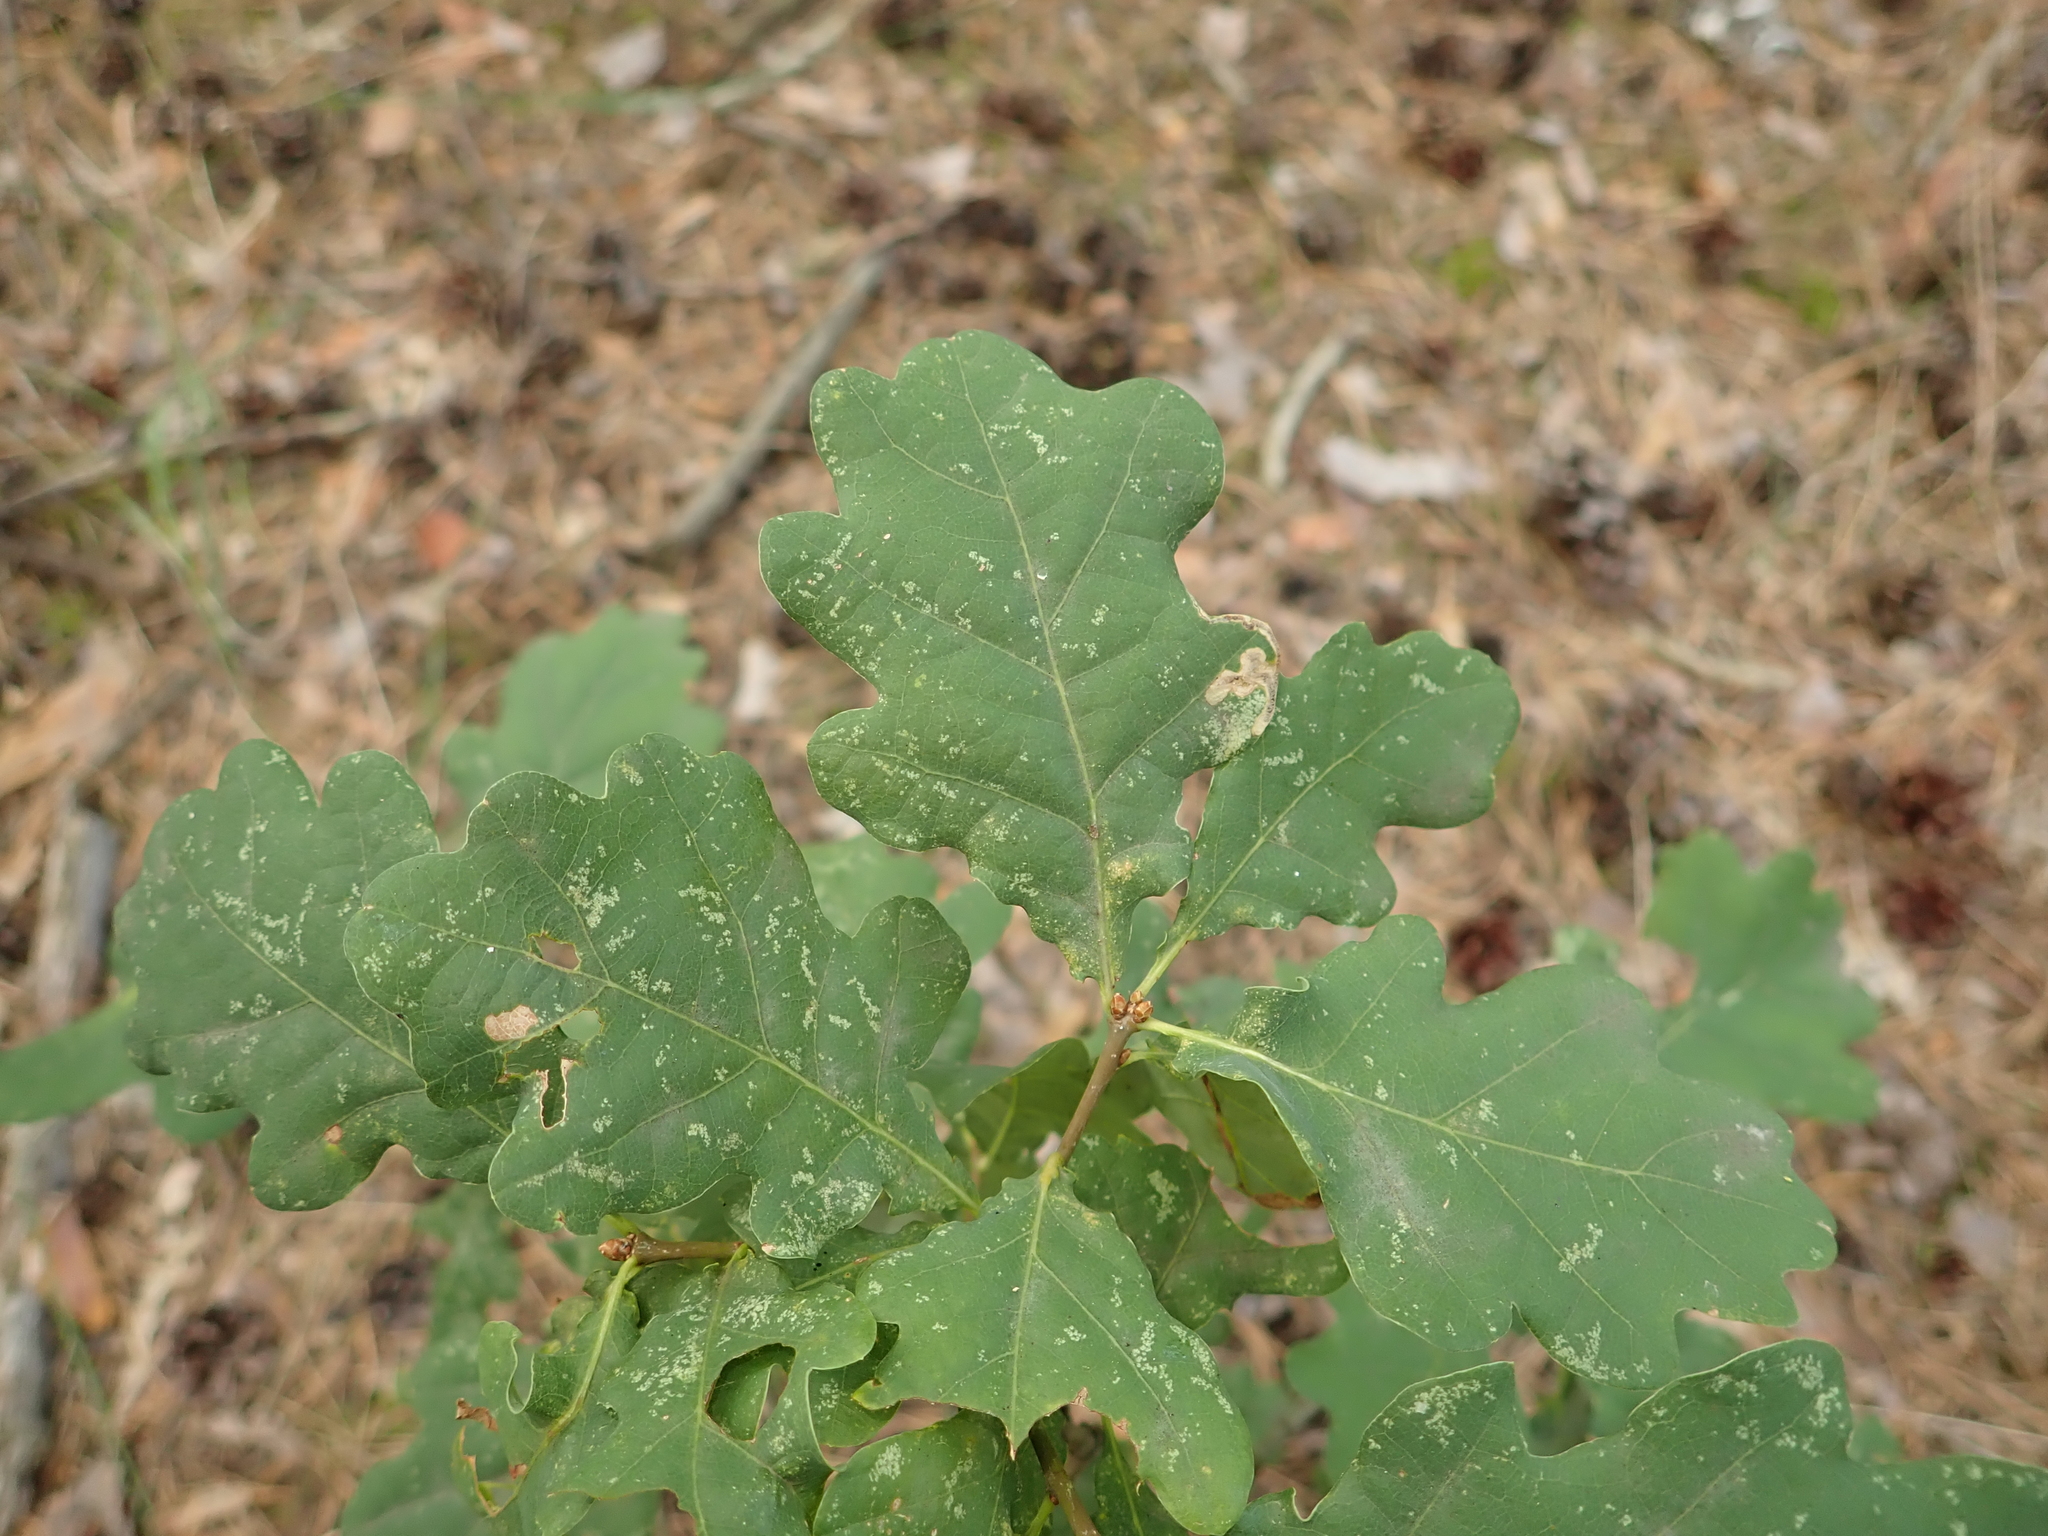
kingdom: Plantae
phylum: Tracheophyta
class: Magnoliopsida
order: Fagales
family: Fagaceae
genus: Quercus
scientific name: Quercus robur
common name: Pedunculate oak
